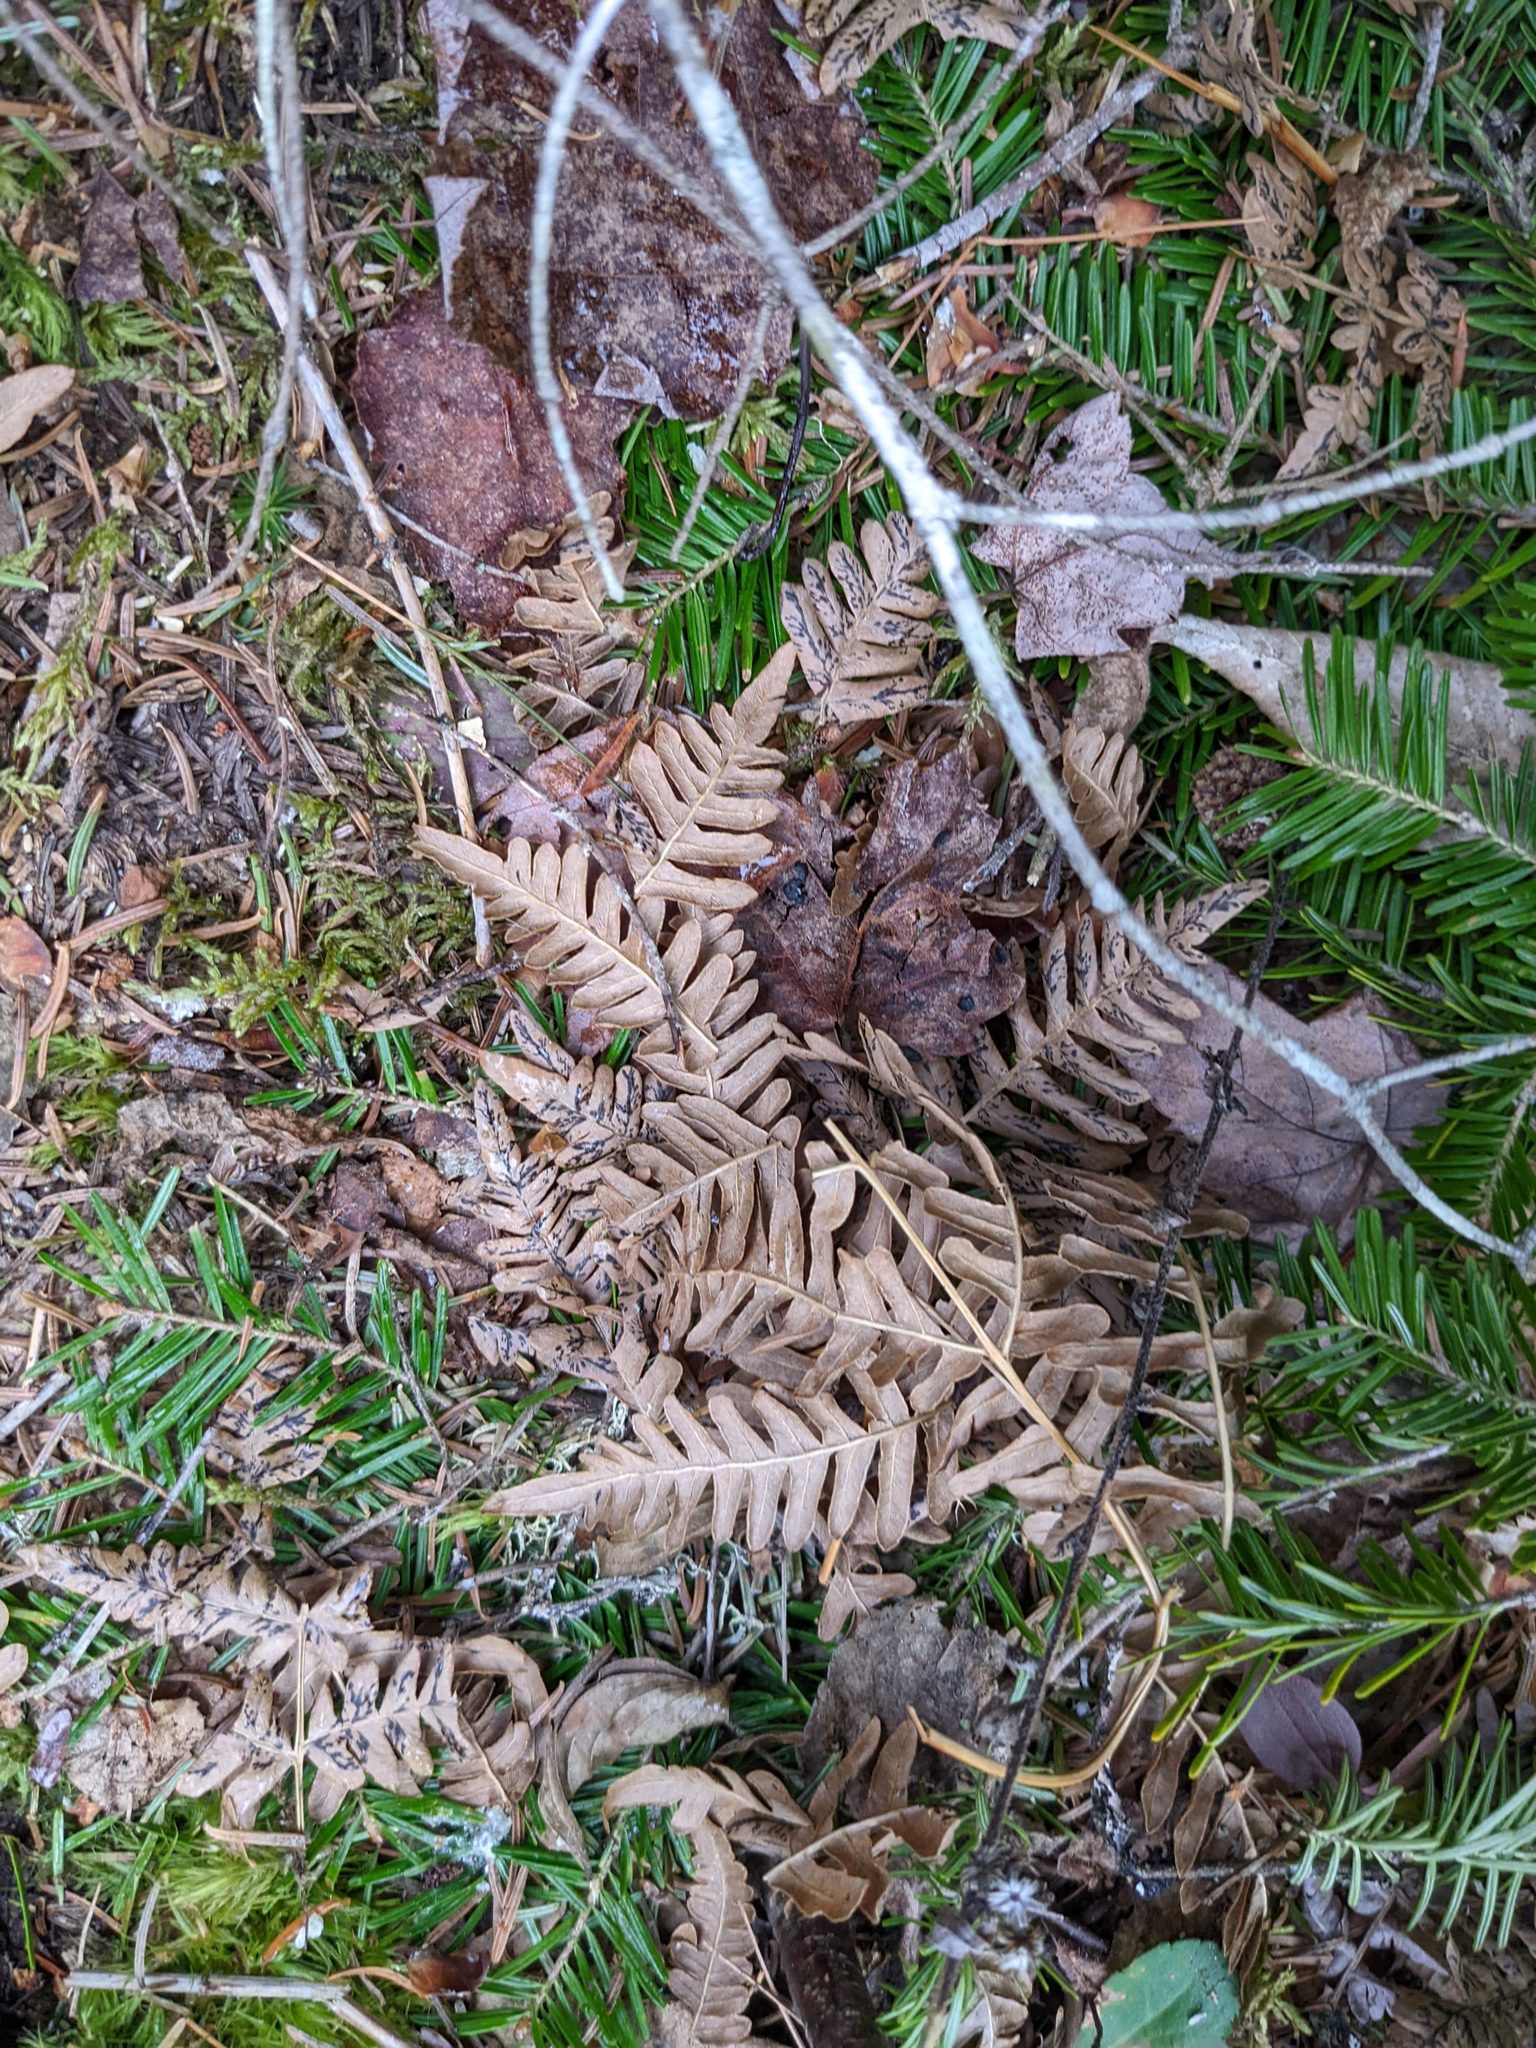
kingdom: Plantae
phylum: Tracheophyta
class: Polypodiopsida
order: Polypodiales
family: Dennstaedtiaceae
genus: Pteridium
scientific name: Pteridium aquilinum
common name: Bracken
